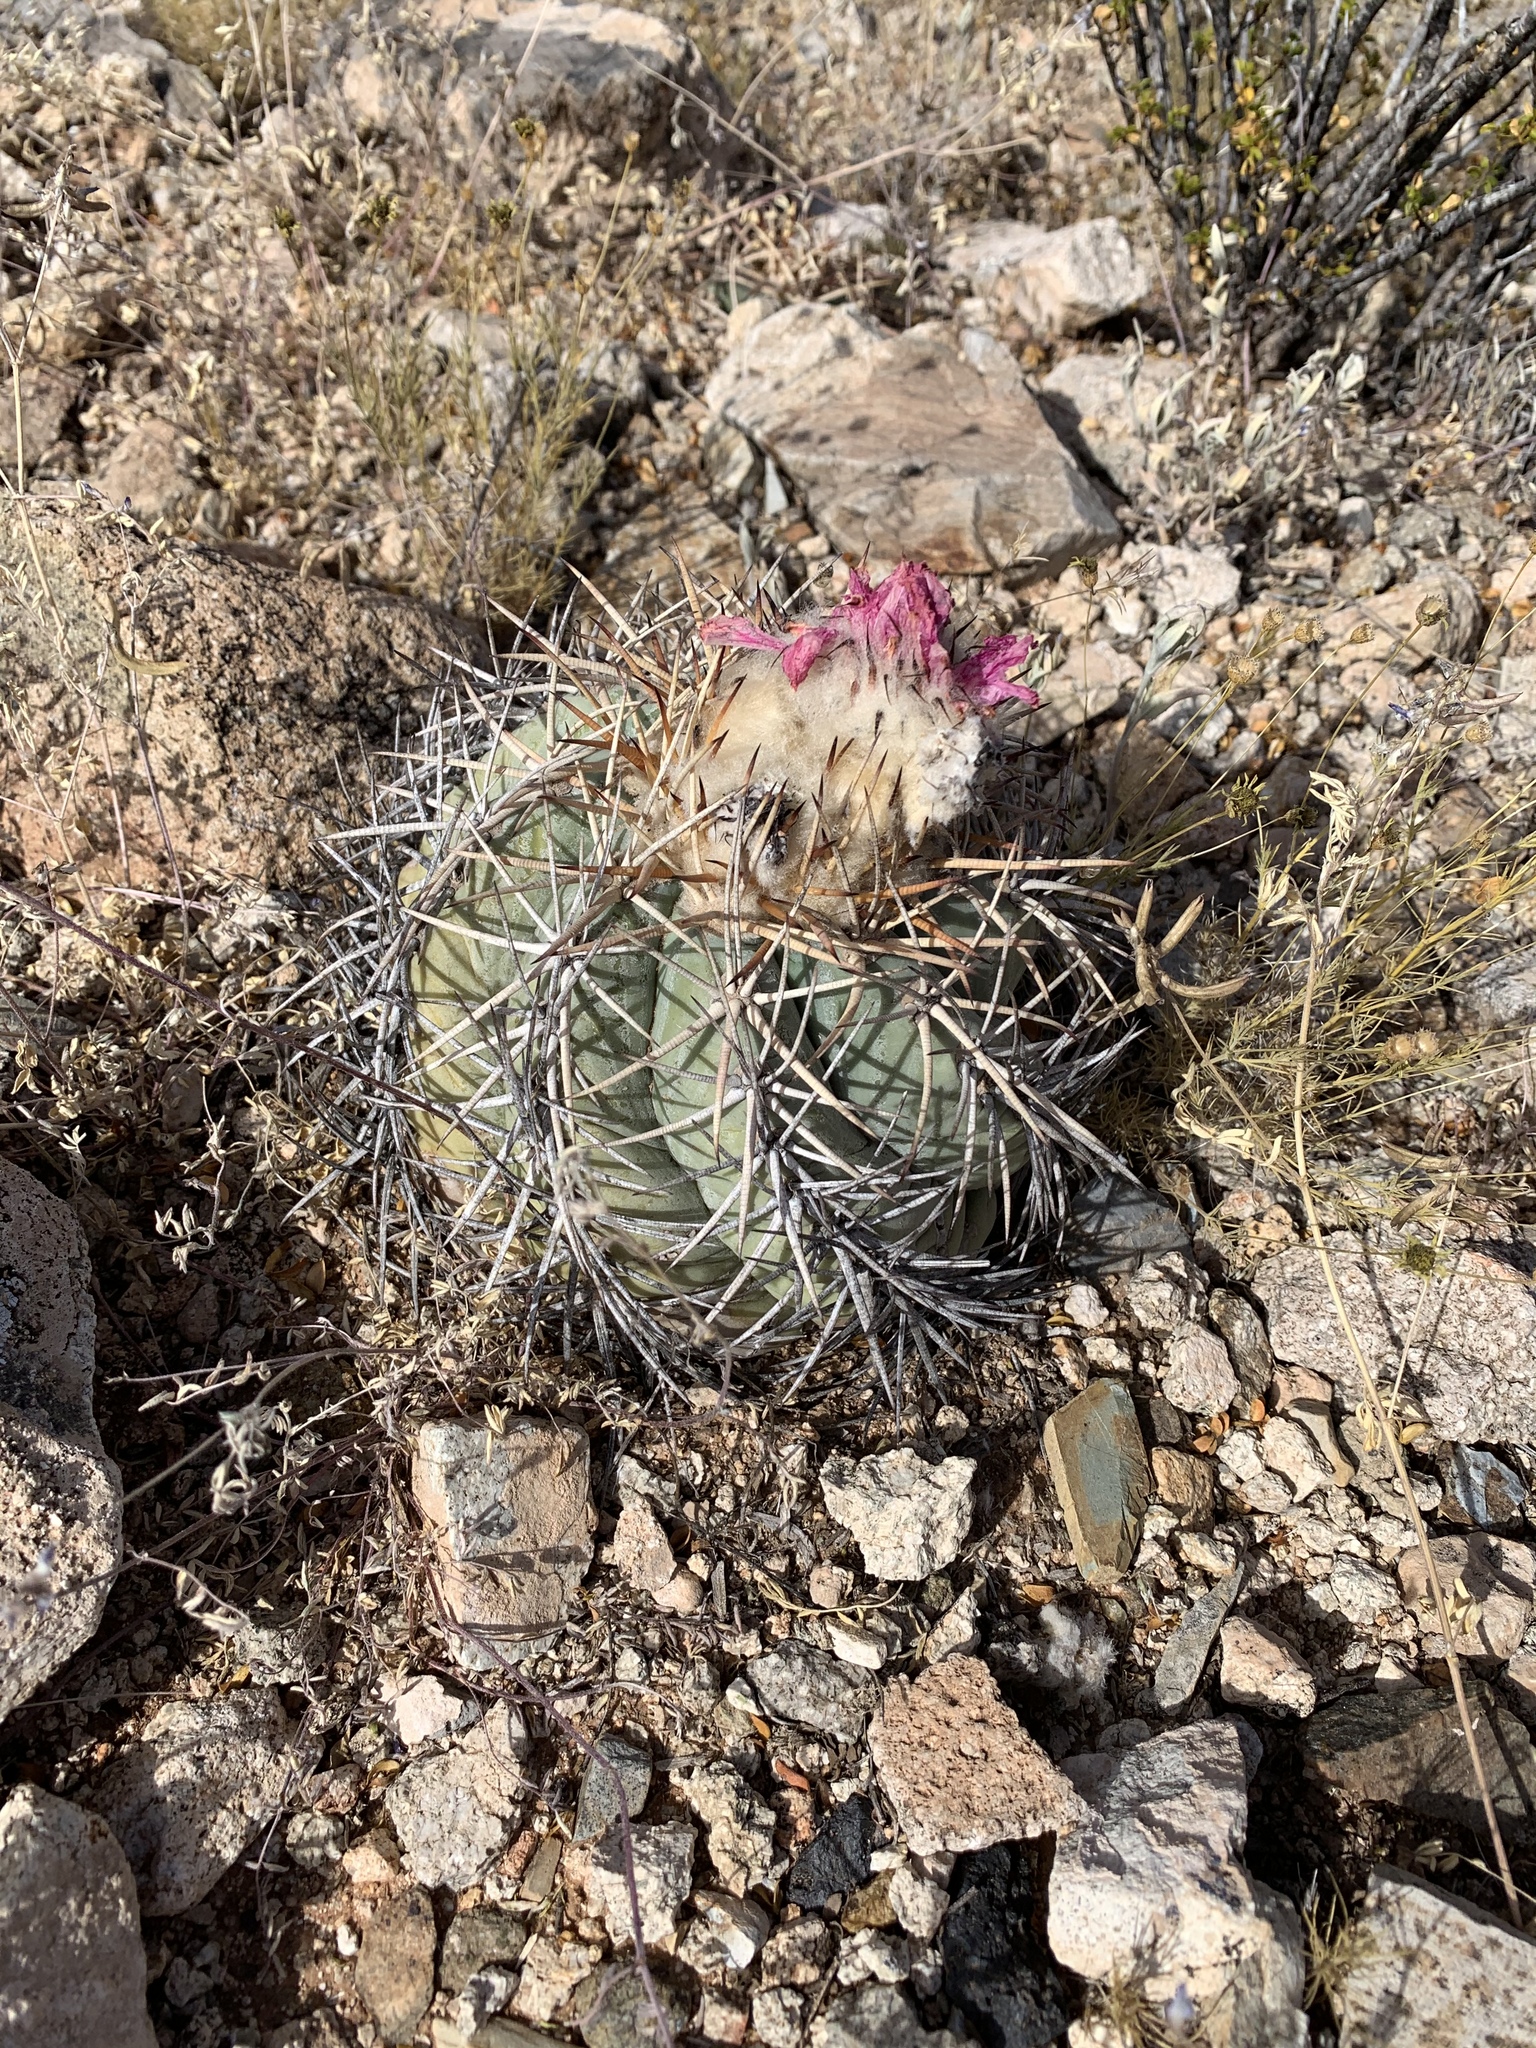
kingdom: Plantae
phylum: Tracheophyta
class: Magnoliopsida
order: Caryophyllales
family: Cactaceae
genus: Echinocactus
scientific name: Echinocactus horizonthalonius
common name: Devilshead
